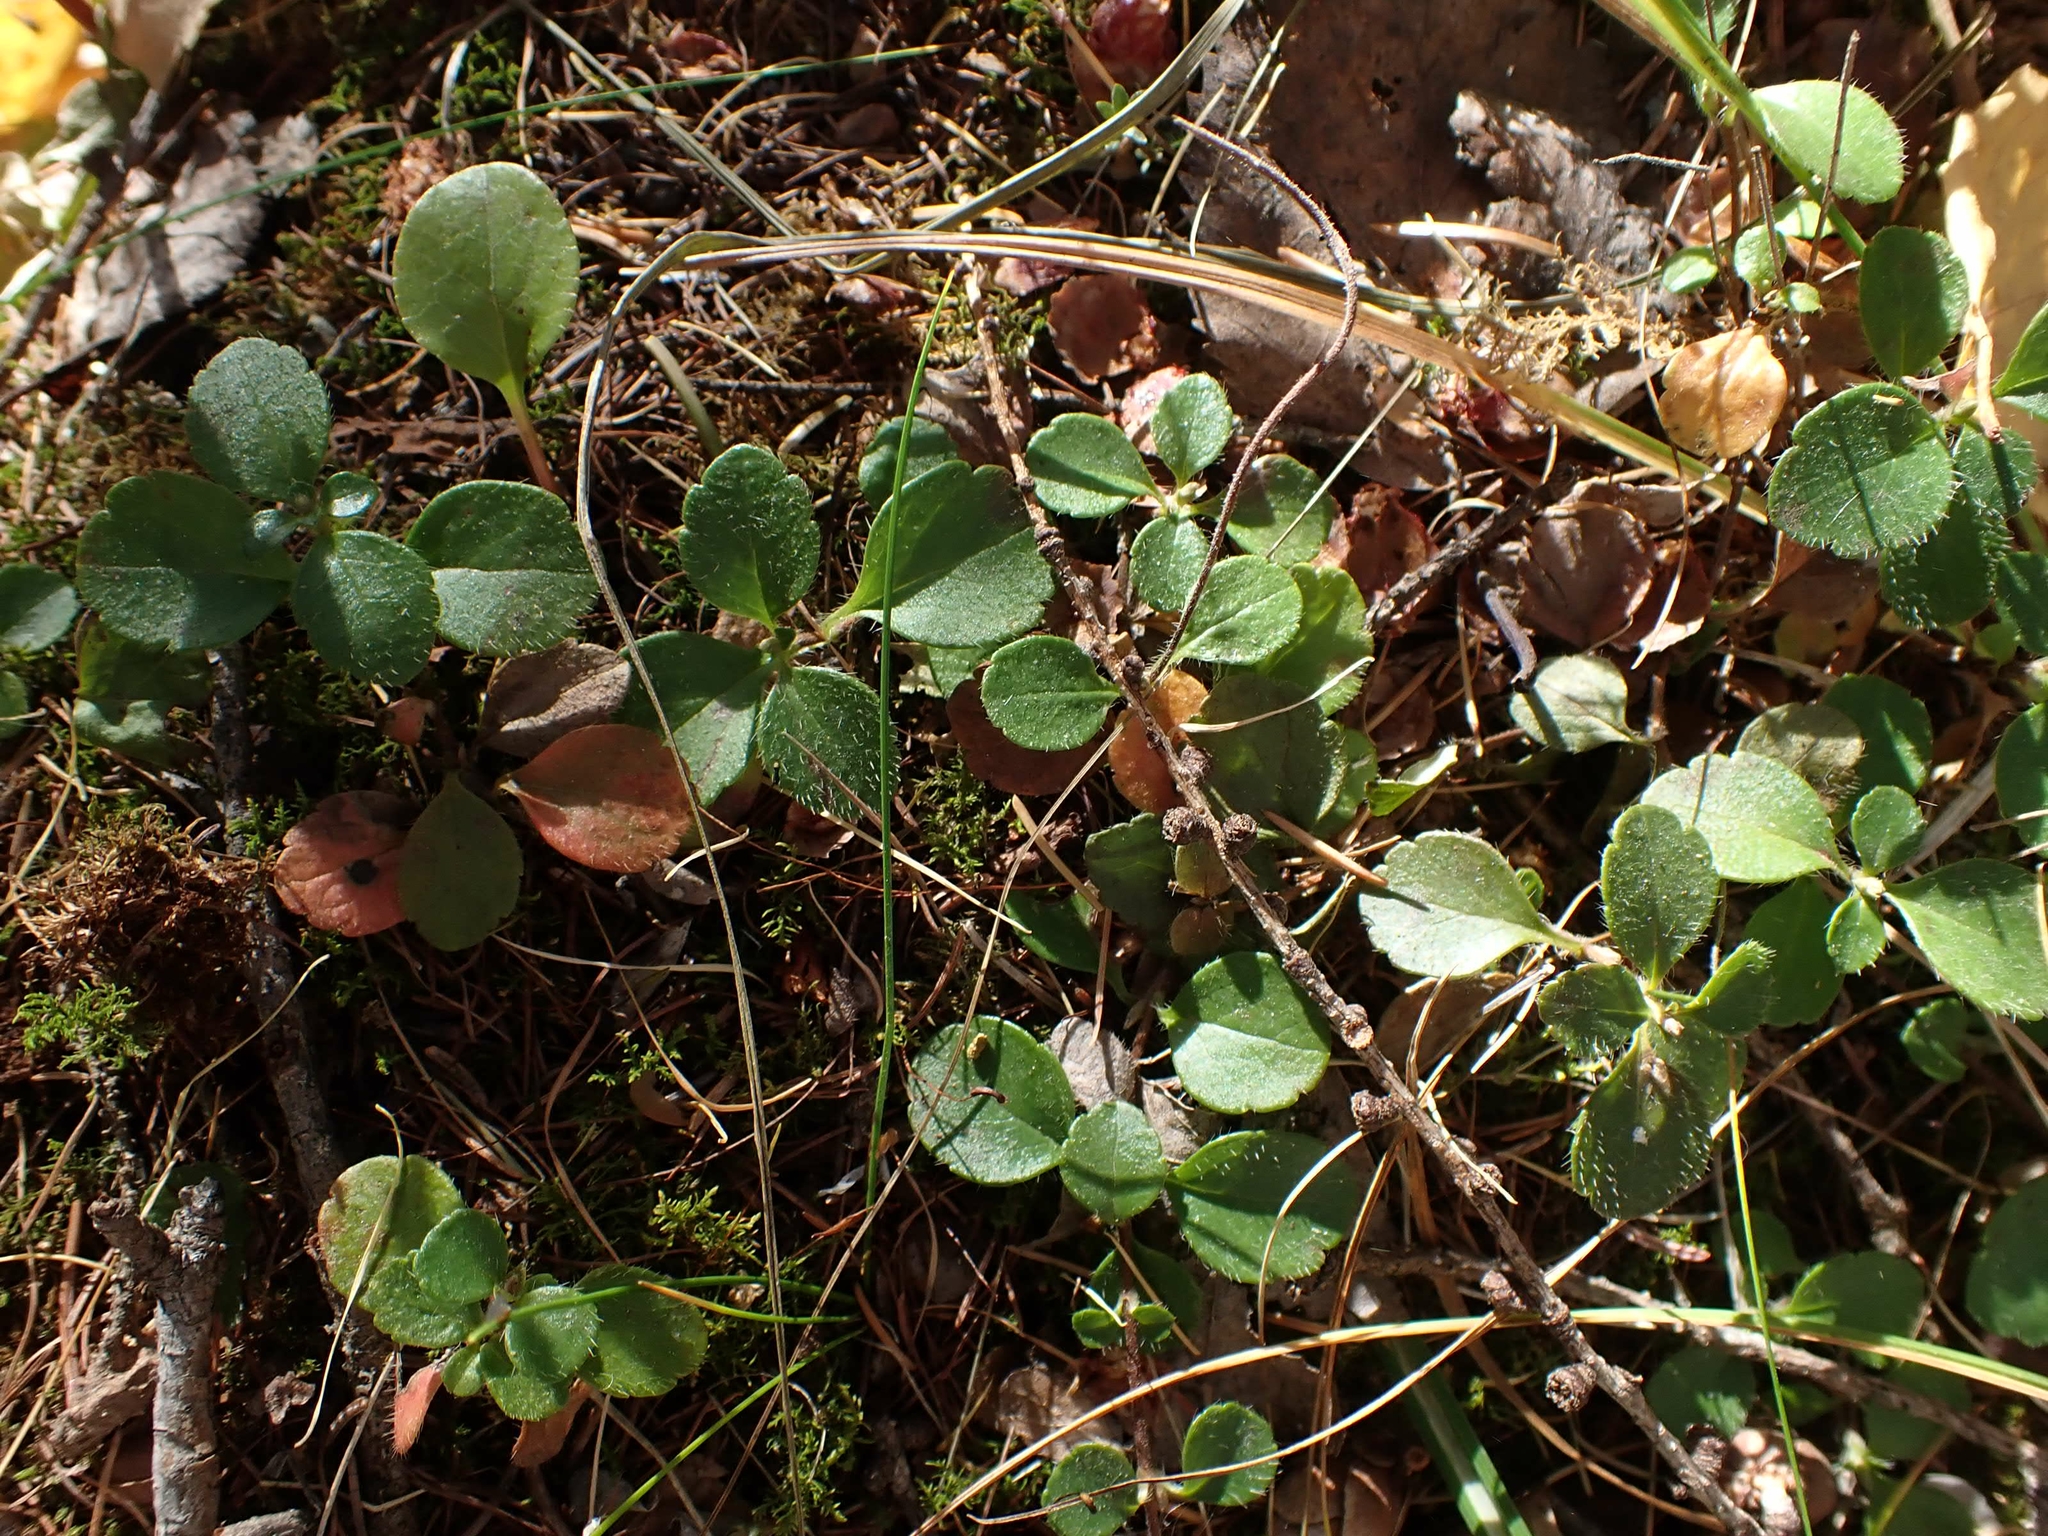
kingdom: Plantae
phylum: Tracheophyta
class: Magnoliopsida
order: Dipsacales
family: Caprifoliaceae
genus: Linnaea
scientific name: Linnaea borealis
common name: Twinflower
